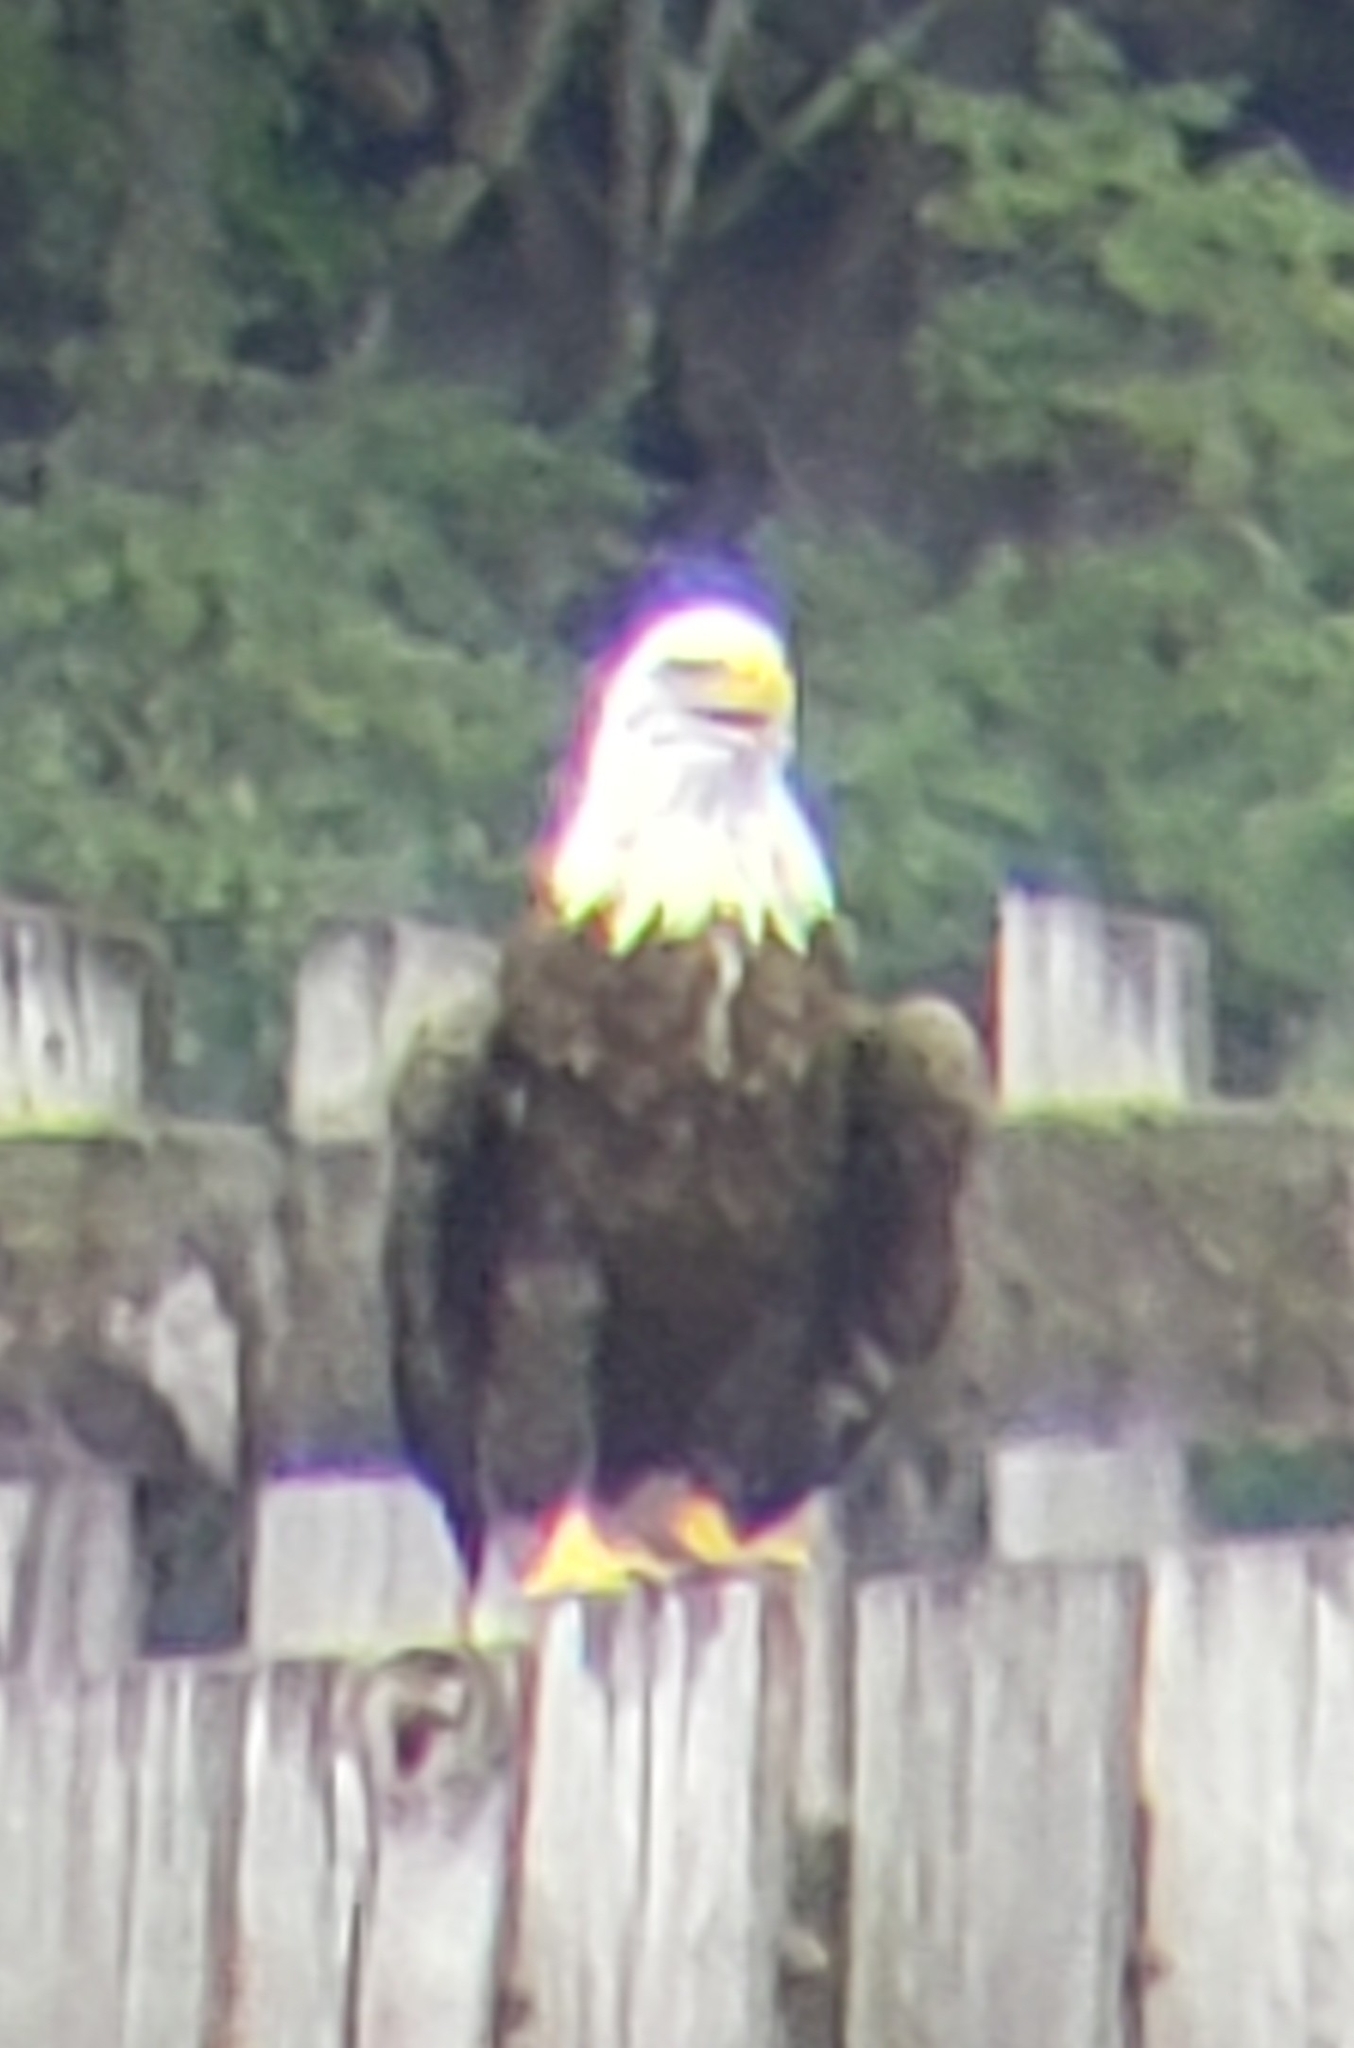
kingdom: Animalia
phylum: Chordata
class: Aves
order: Accipitriformes
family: Accipitridae
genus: Haliaeetus
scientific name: Haliaeetus leucocephalus
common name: Bald eagle
